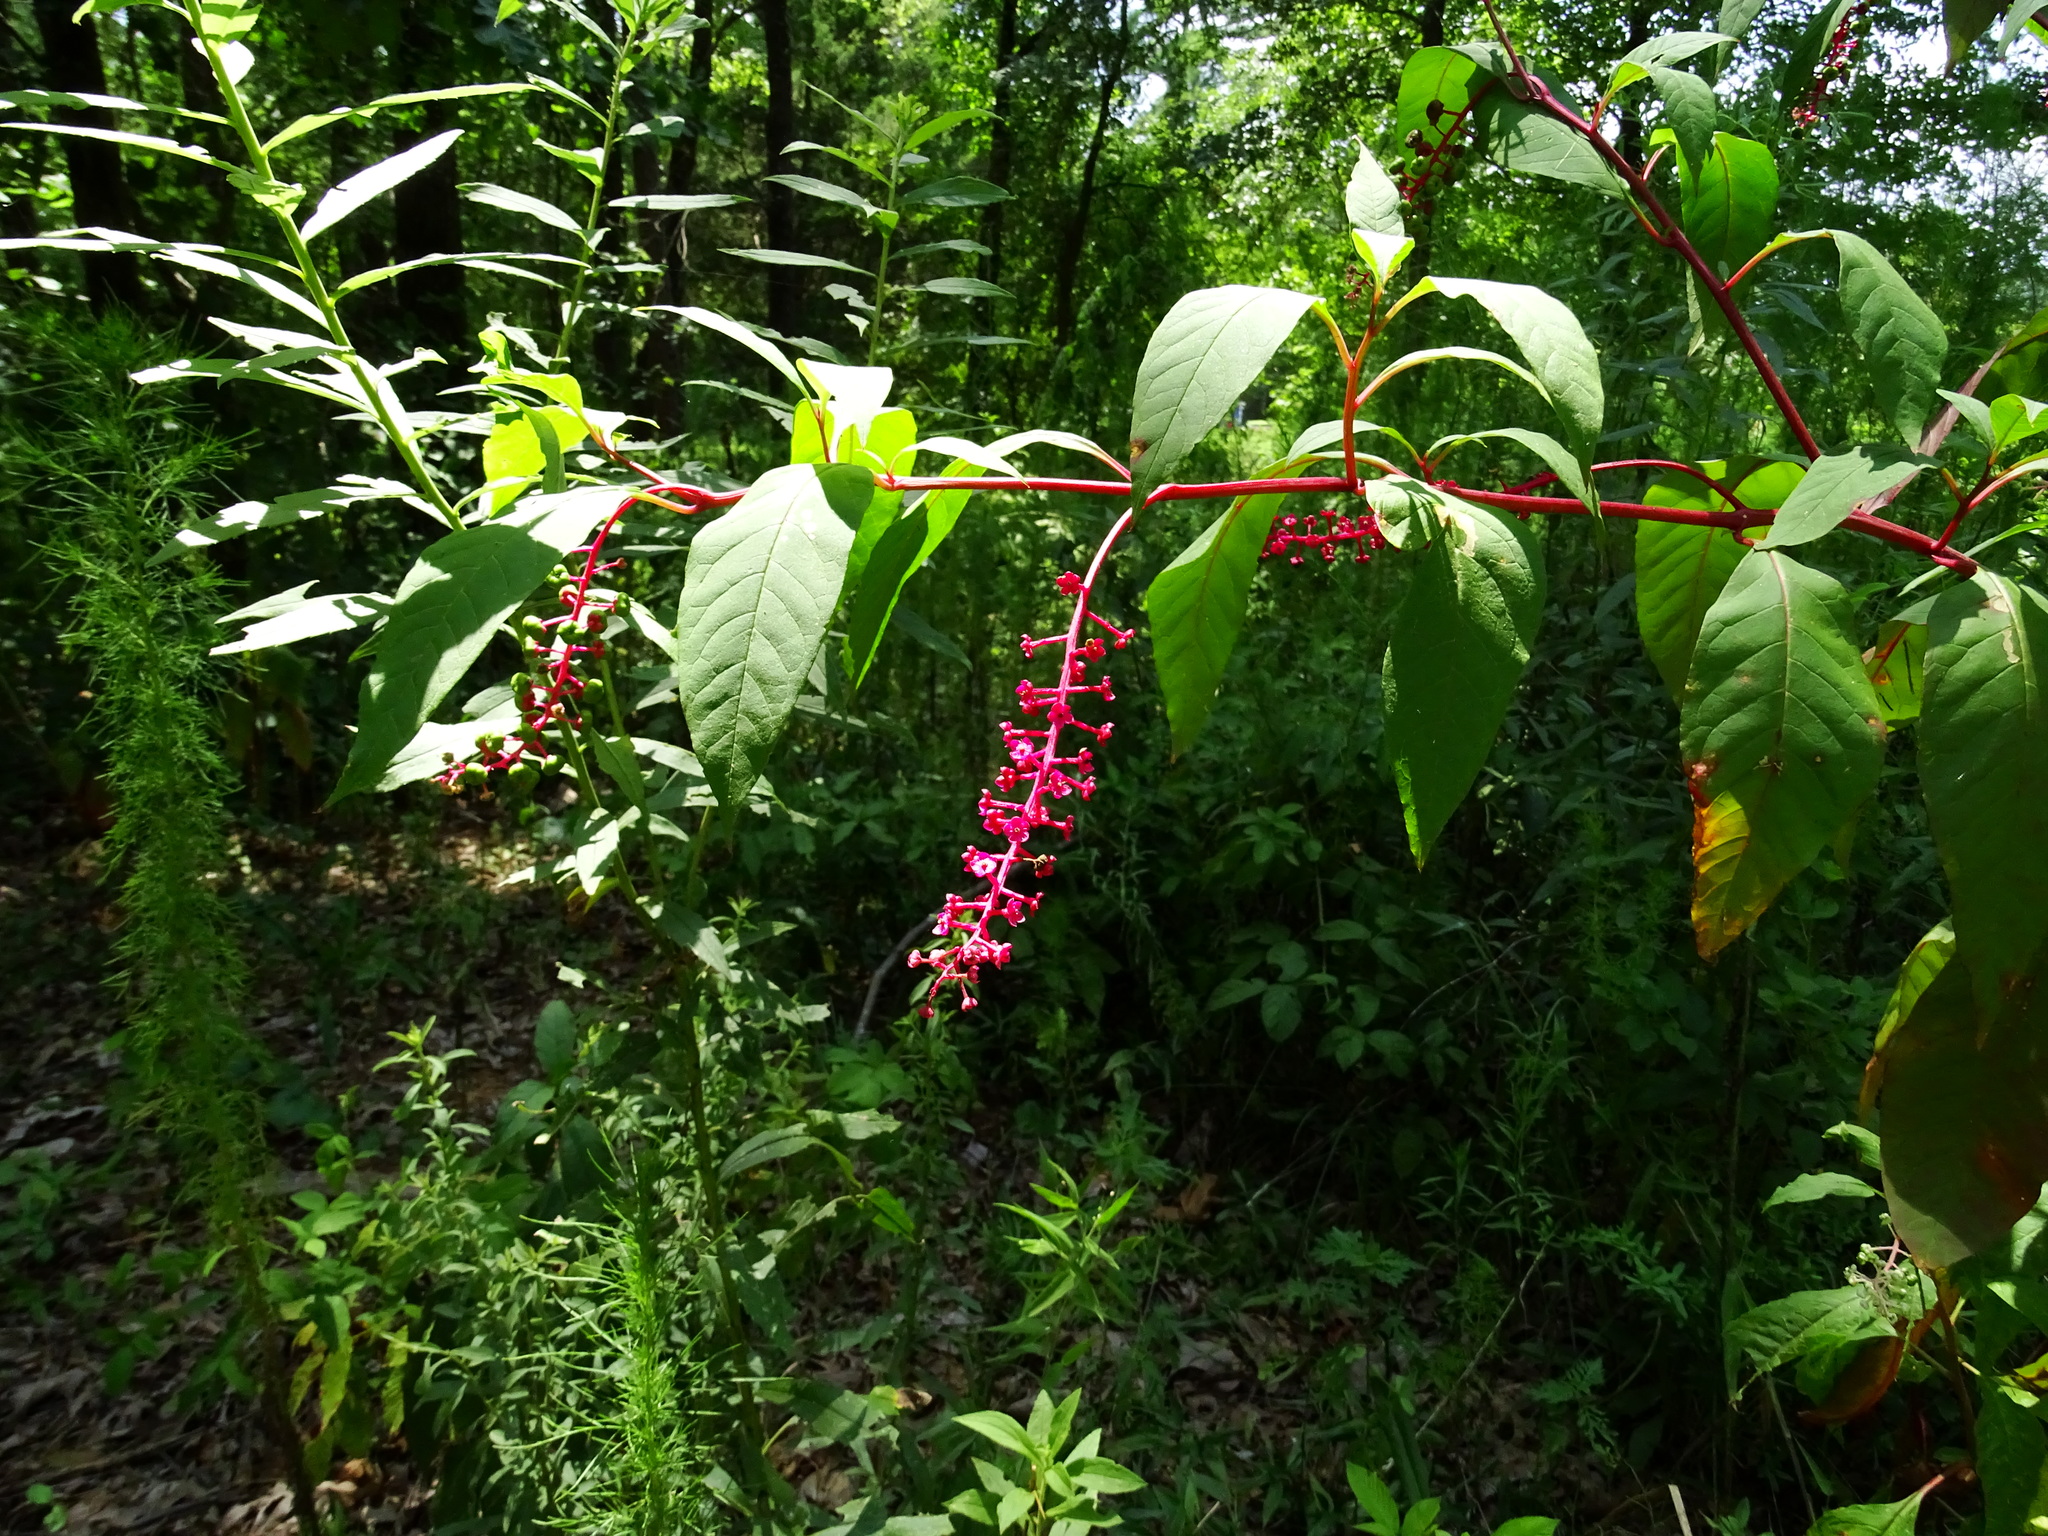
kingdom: Plantae
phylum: Tracheophyta
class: Magnoliopsida
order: Caryophyllales
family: Phytolaccaceae
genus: Phytolacca
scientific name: Phytolacca americana
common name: American pokeweed
